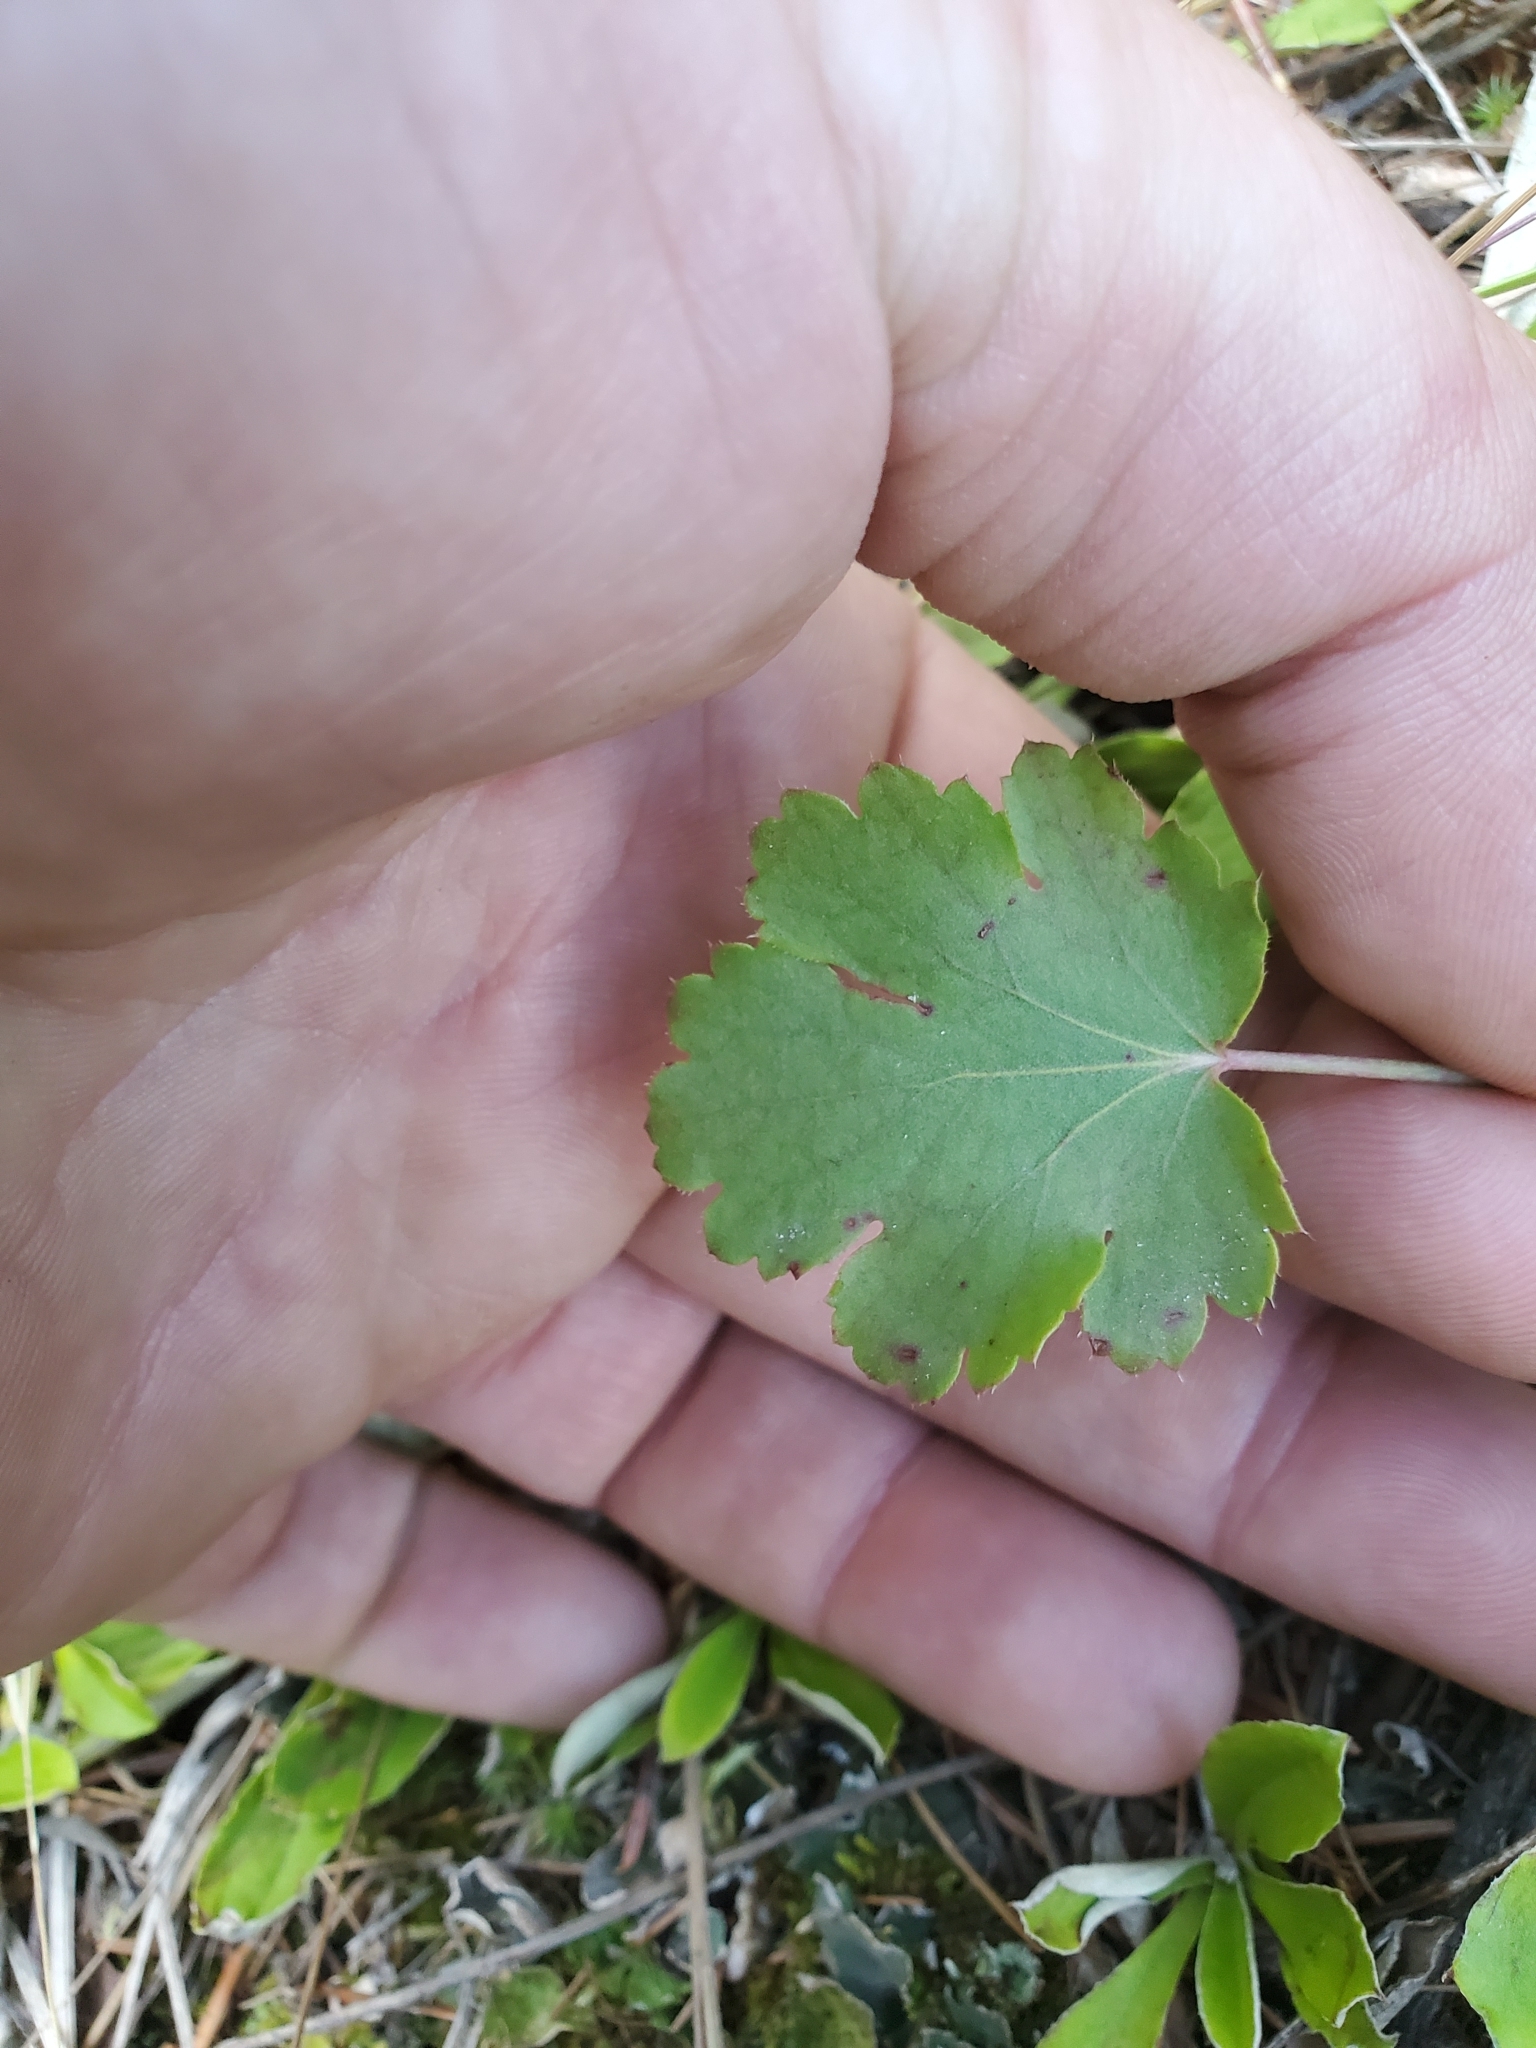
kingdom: Plantae
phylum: Tracheophyta
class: Magnoliopsida
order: Saxifragales
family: Saxifragaceae
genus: Heuchera
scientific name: Heuchera cylindrica
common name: Mat alumroot
